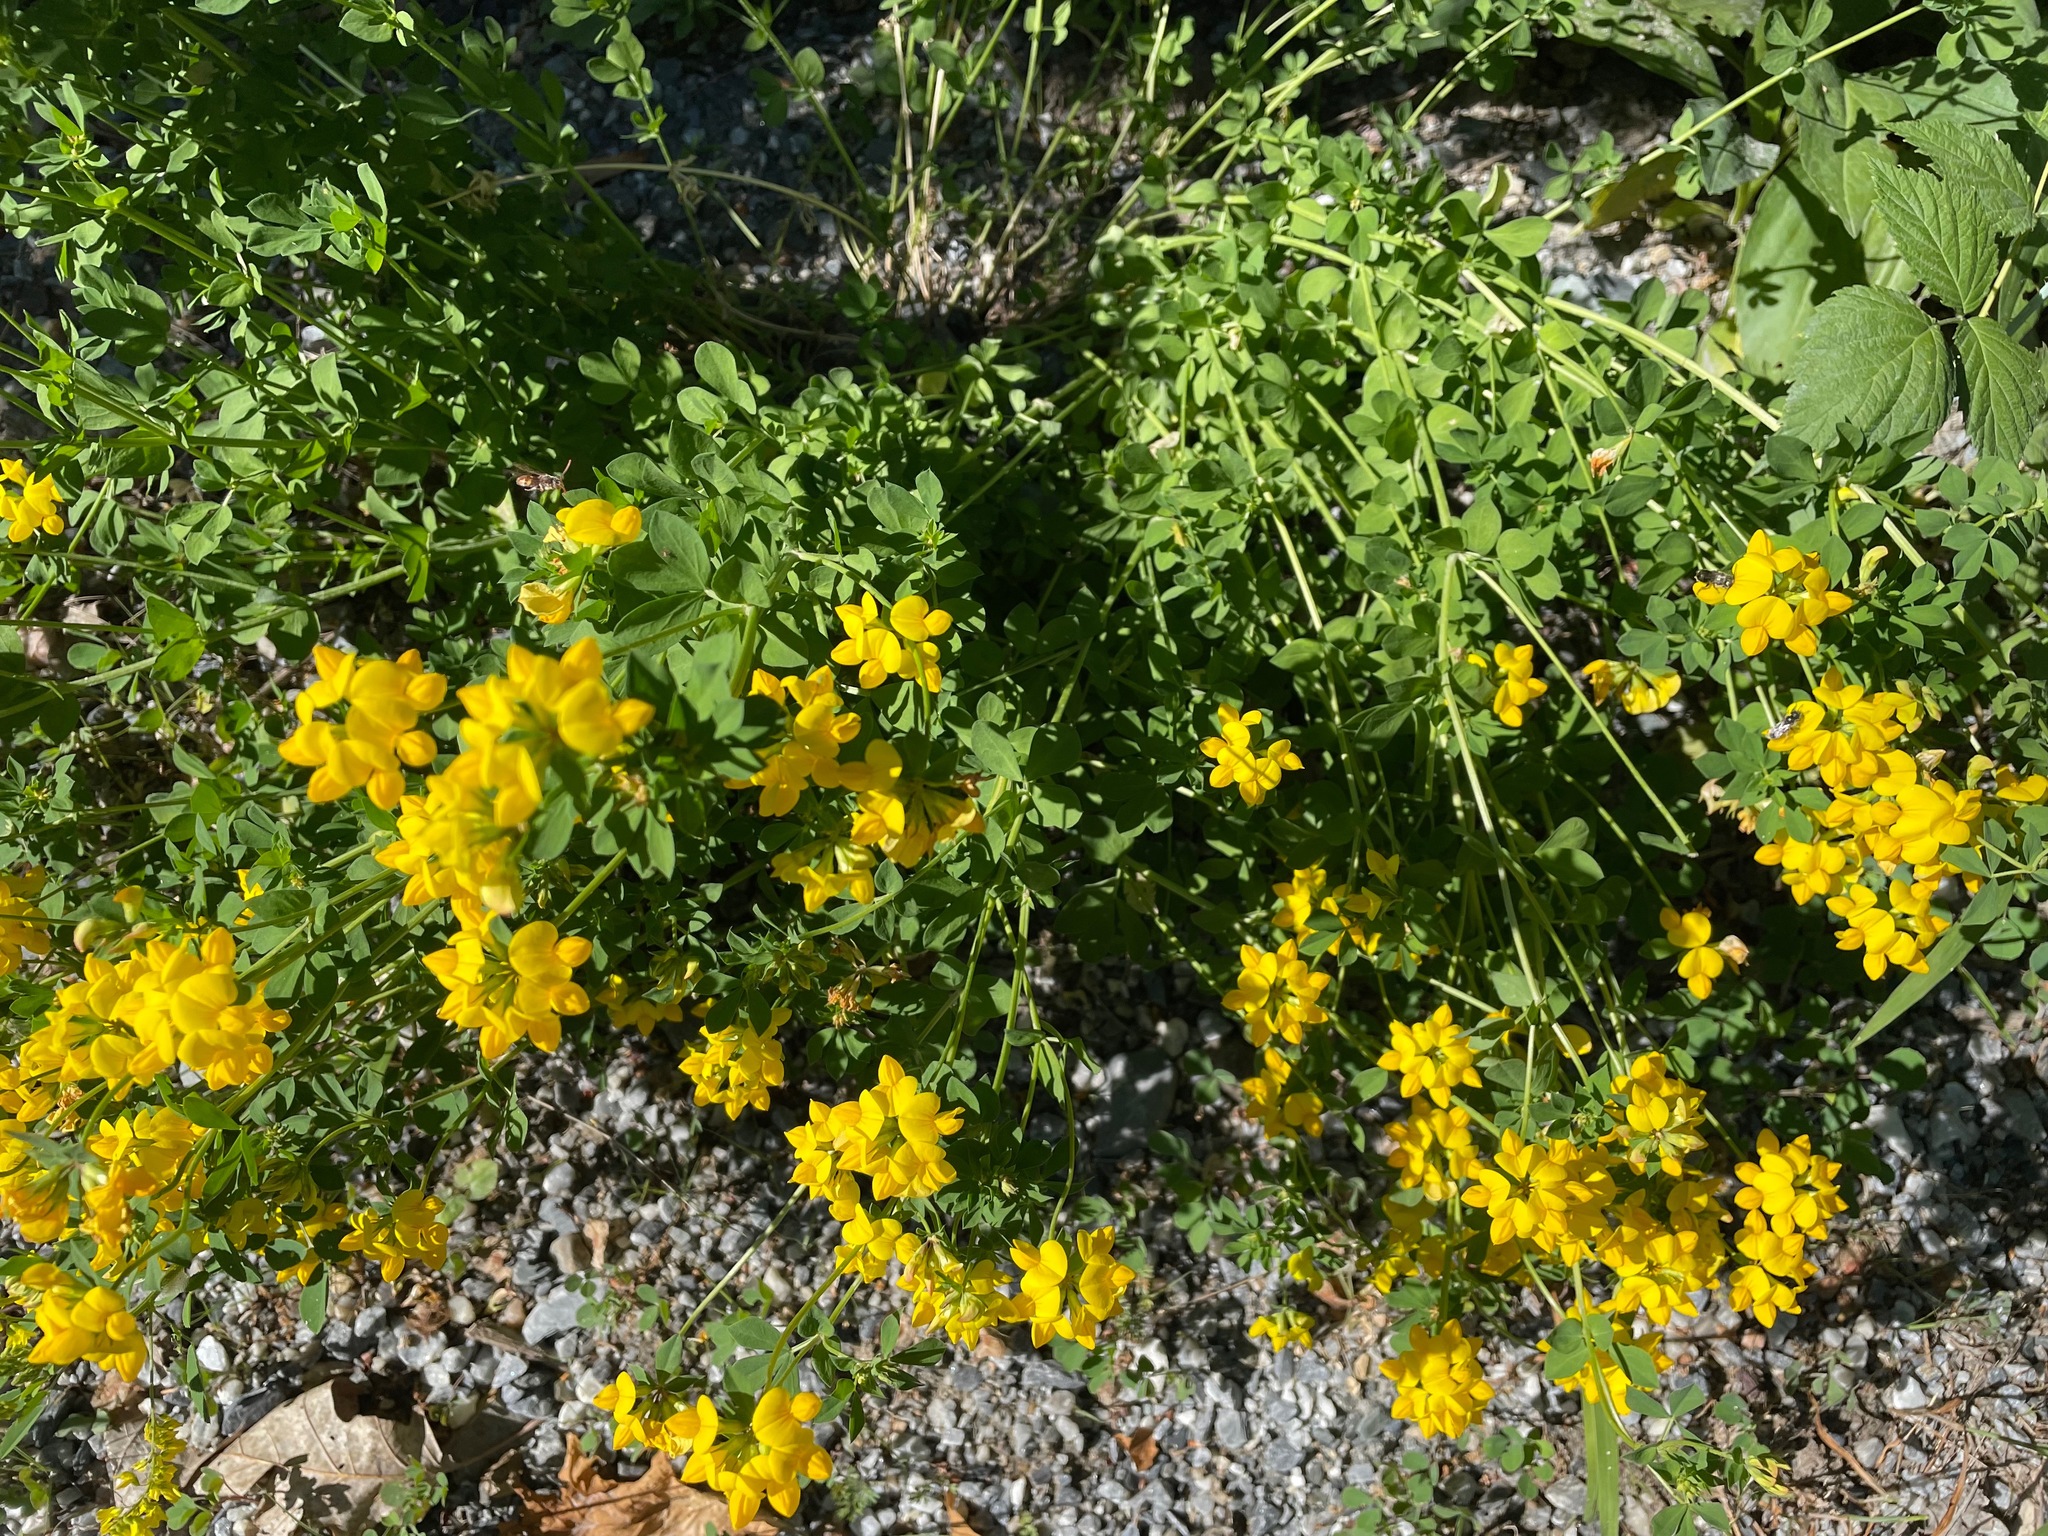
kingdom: Plantae
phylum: Tracheophyta
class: Magnoliopsida
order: Fabales
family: Fabaceae
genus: Lotus
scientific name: Lotus corniculatus
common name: Common bird's-foot-trefoil
